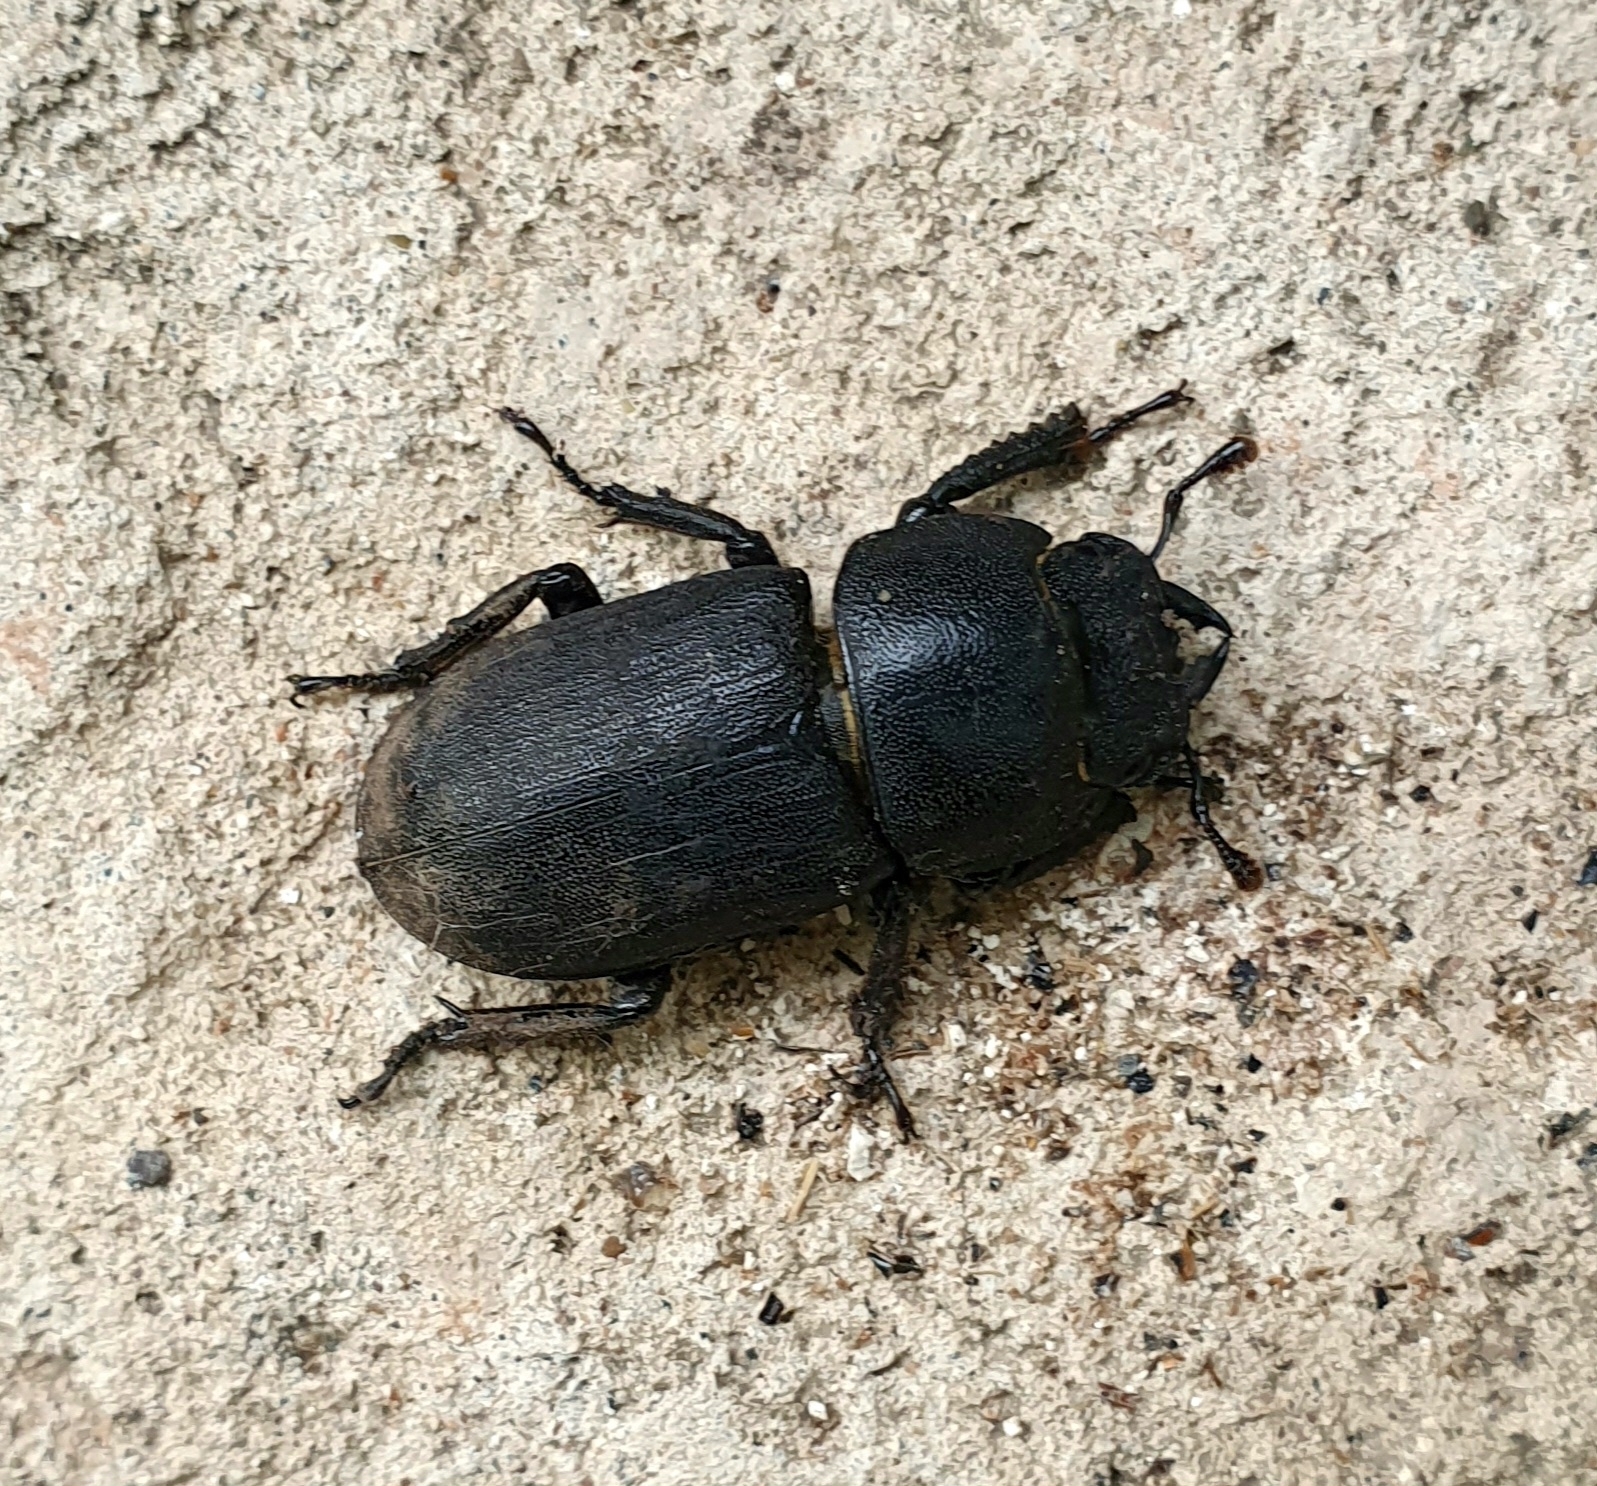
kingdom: Animalia
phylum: Arthropoda
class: Insecta
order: Coleoptera
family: Lucanidae
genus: Dorcus
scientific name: Dorcus parallelipipedus
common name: Lesser stag beetle
